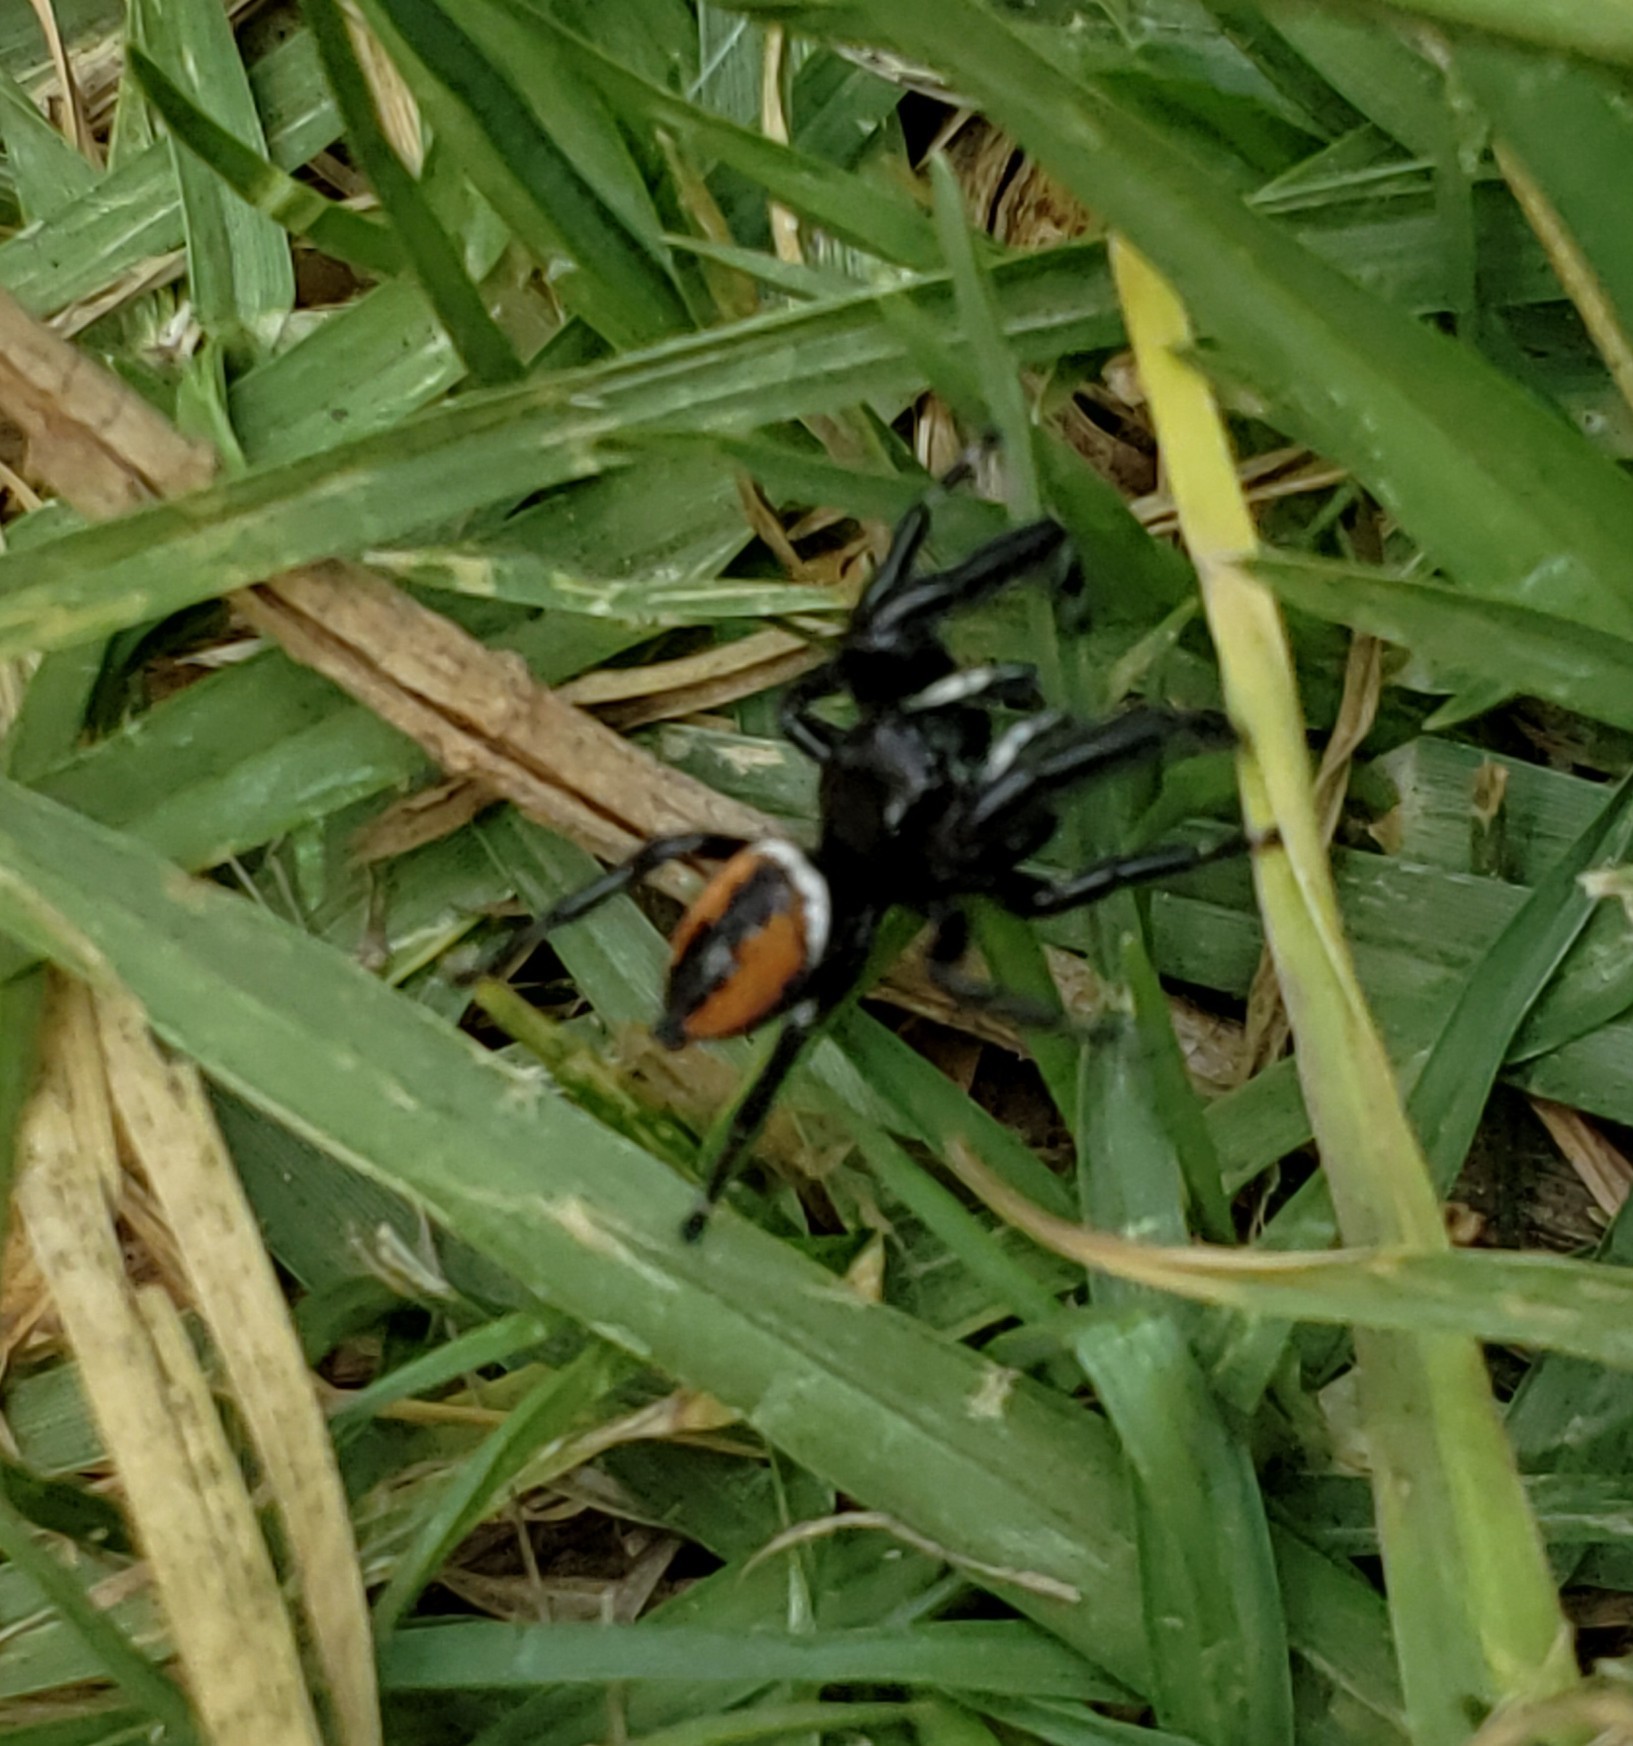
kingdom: Animalia
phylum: Arthropoda
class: Arachnida
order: Araneae
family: Salticidae
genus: Phidippus
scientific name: Phidippus clarus
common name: Brilliant jumping spider
